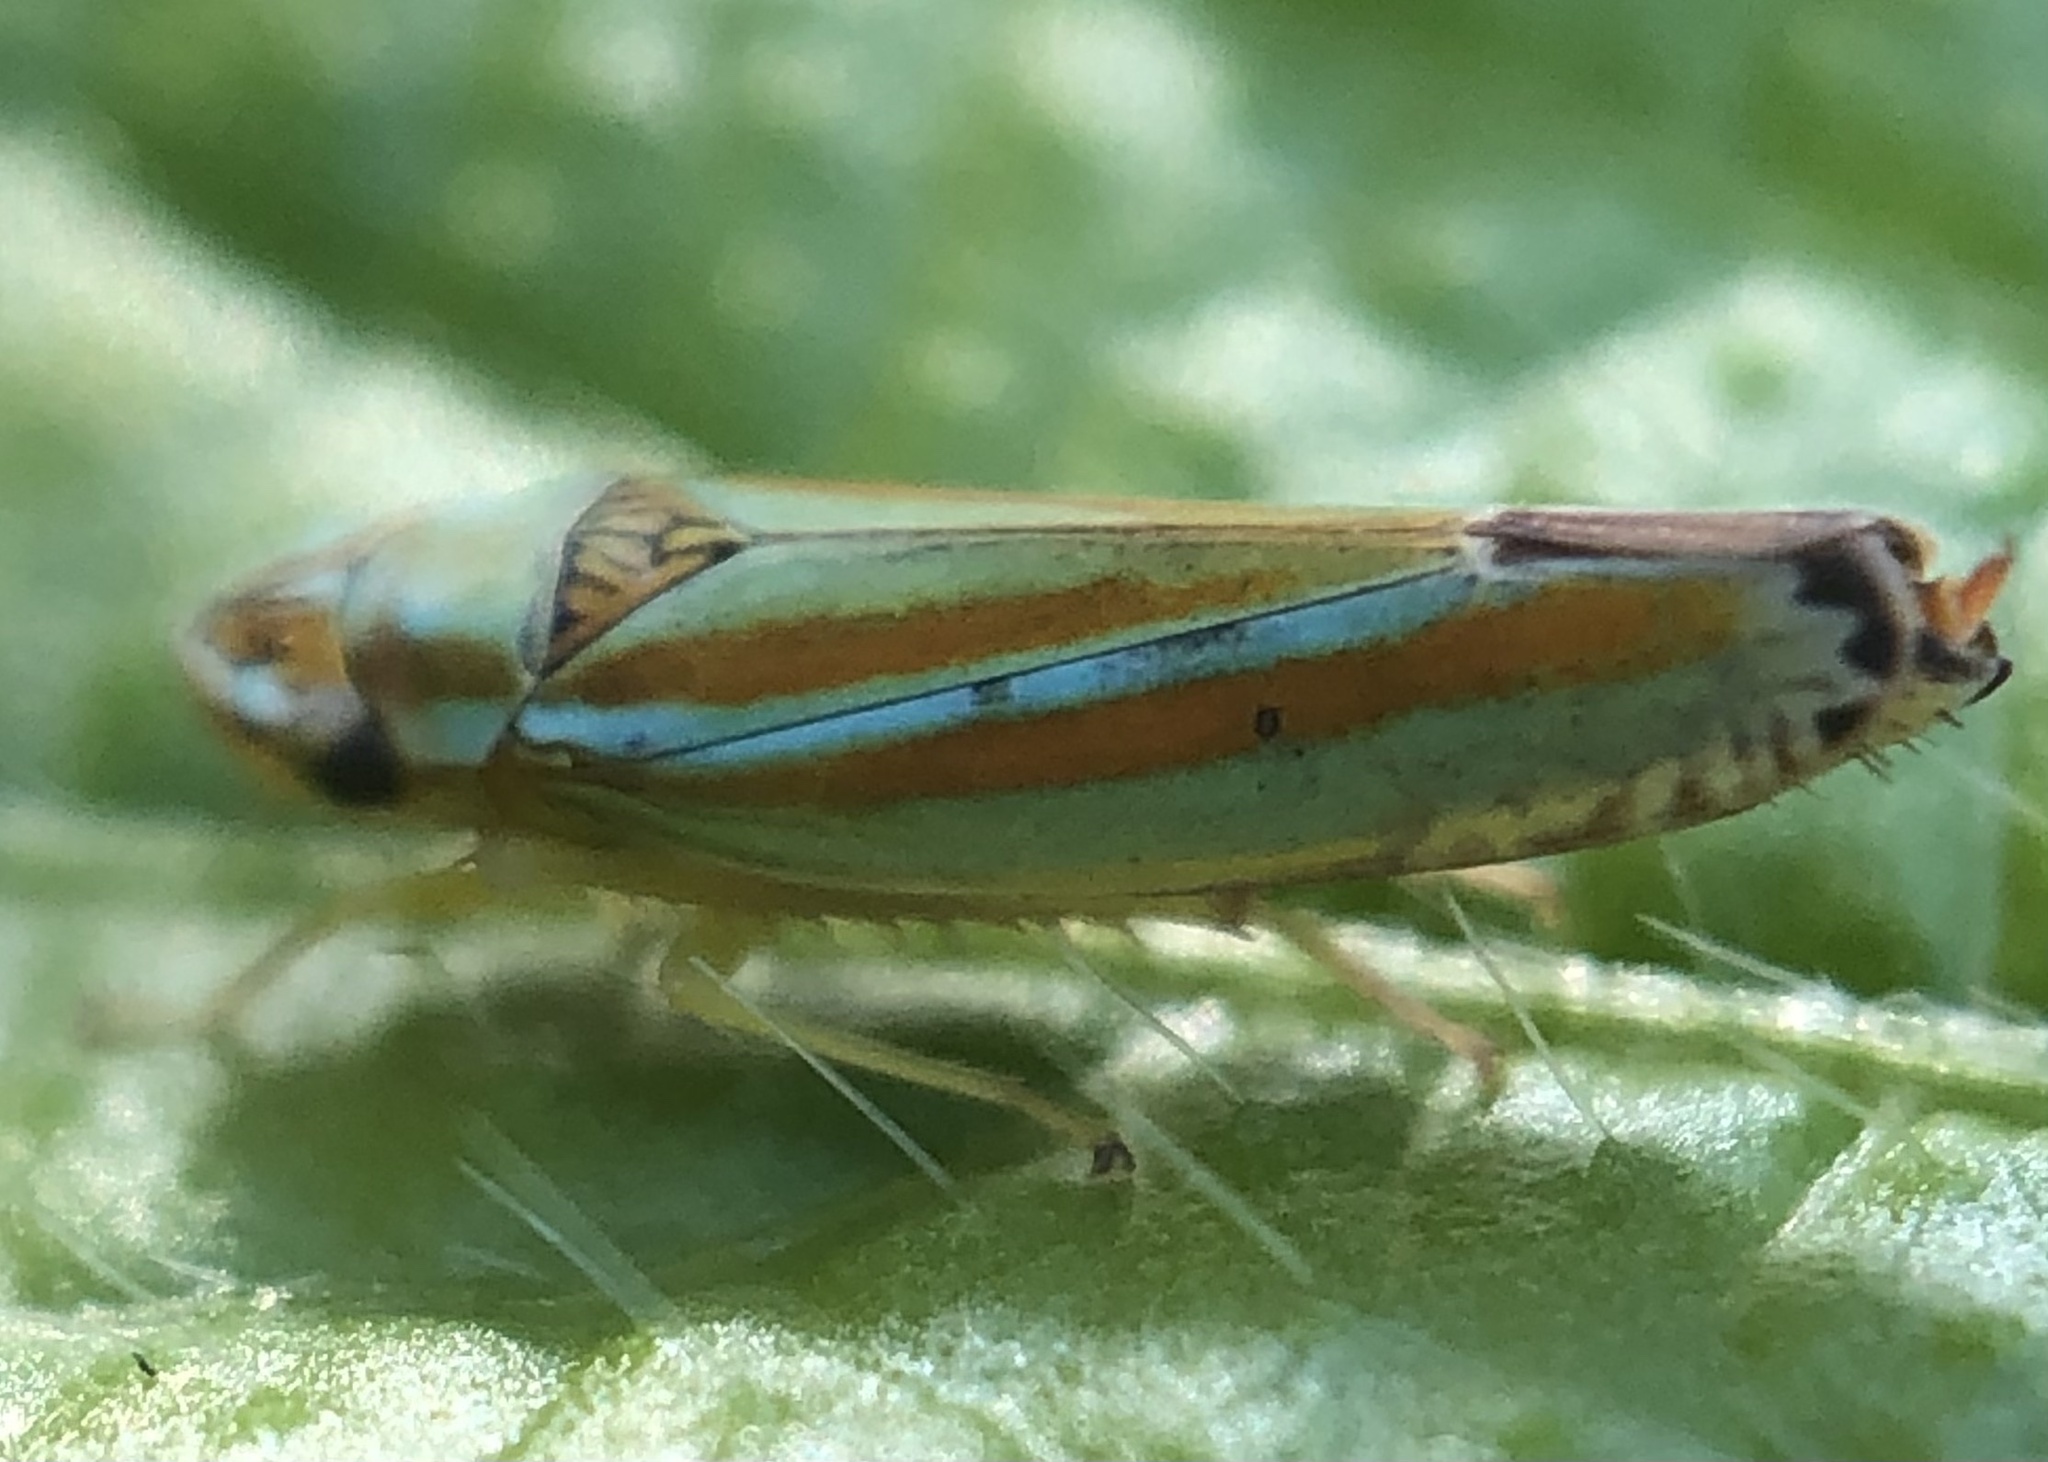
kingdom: Animalia
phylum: Arthropoda
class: Insecta
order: Hemiptera
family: Cicadellidae
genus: Graphocephala
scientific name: Graphocephala versuta
